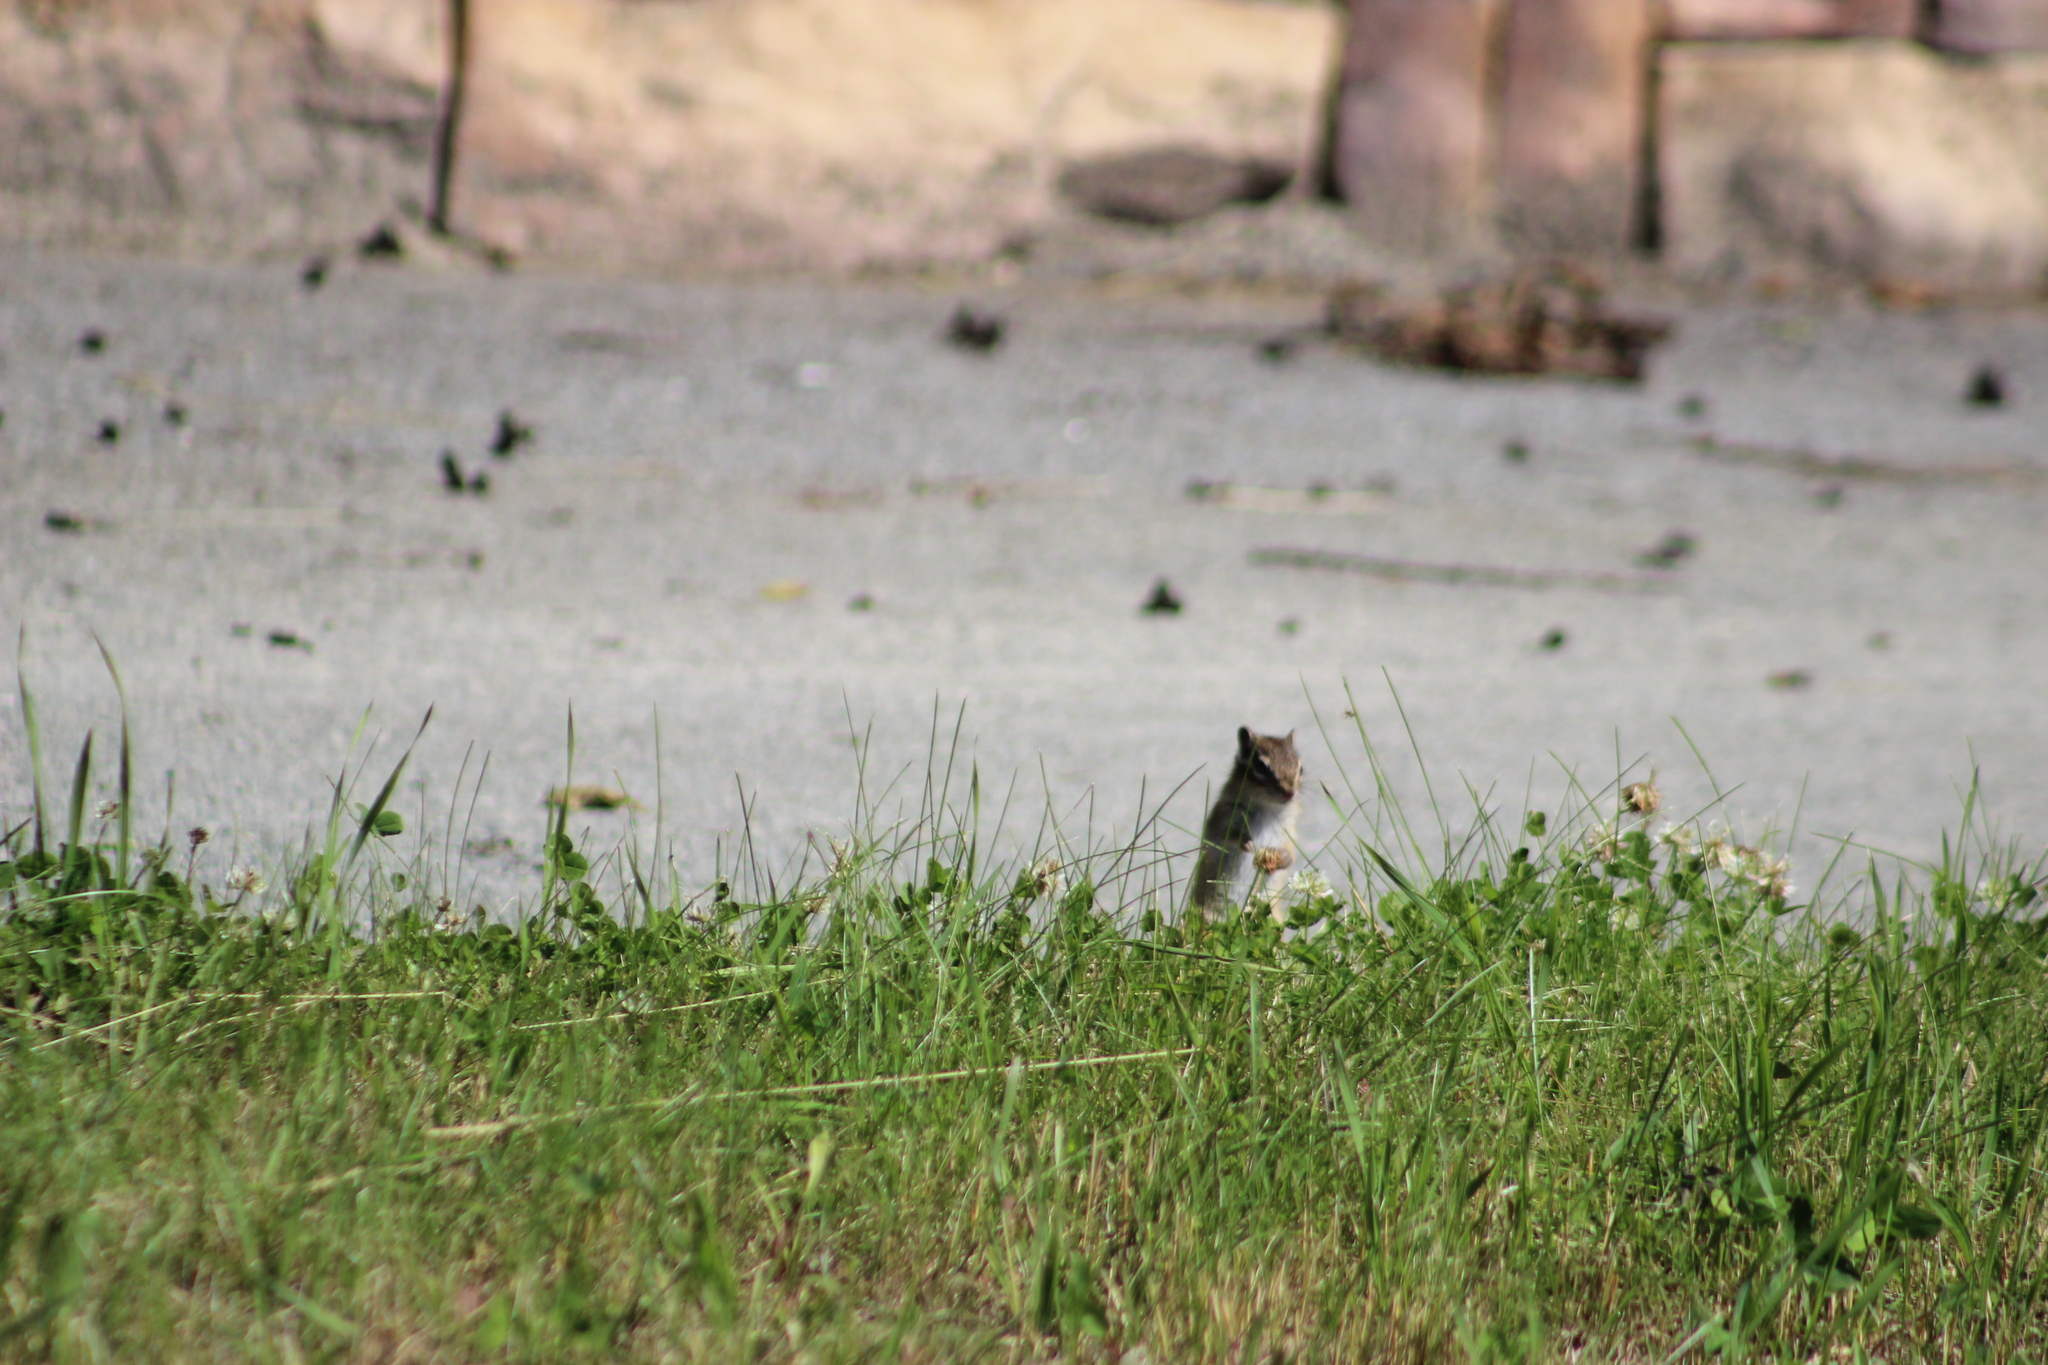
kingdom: Animalia
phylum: Chordata
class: Mammalia
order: Rodentia
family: Sciuridae
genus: Tamias
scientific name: Tamias sibiricus
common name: Siberian chipmunk
